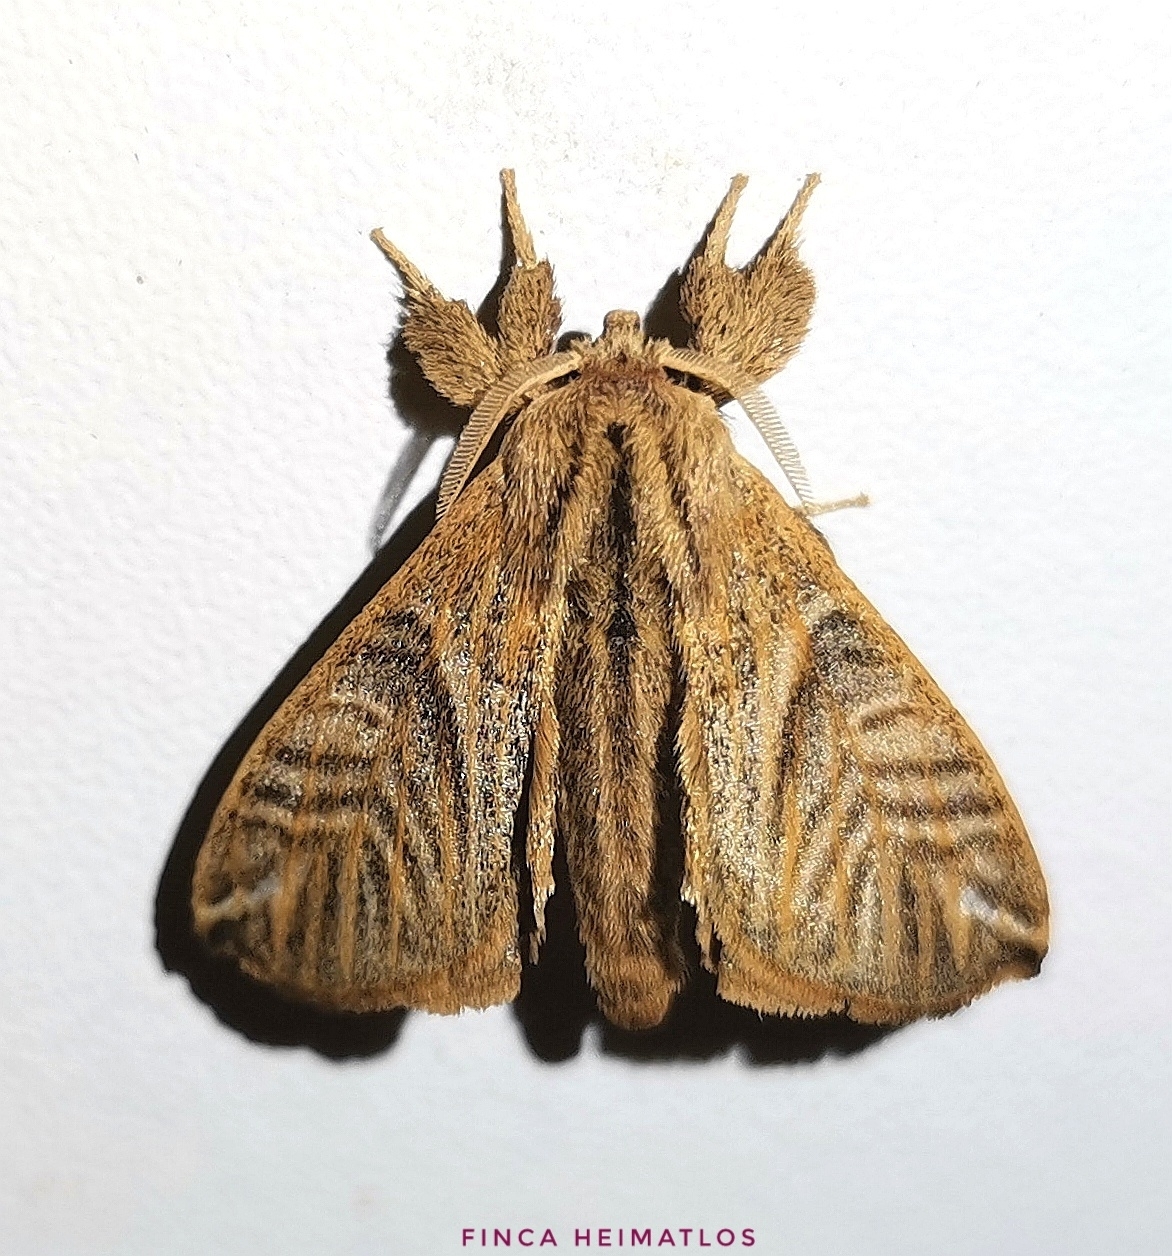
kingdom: Animalia
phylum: Arthropoda
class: Insecta
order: Lepidoptera
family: Apatelodidae
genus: Hygrochroa
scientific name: Hygrochroa Apatelodes striata
